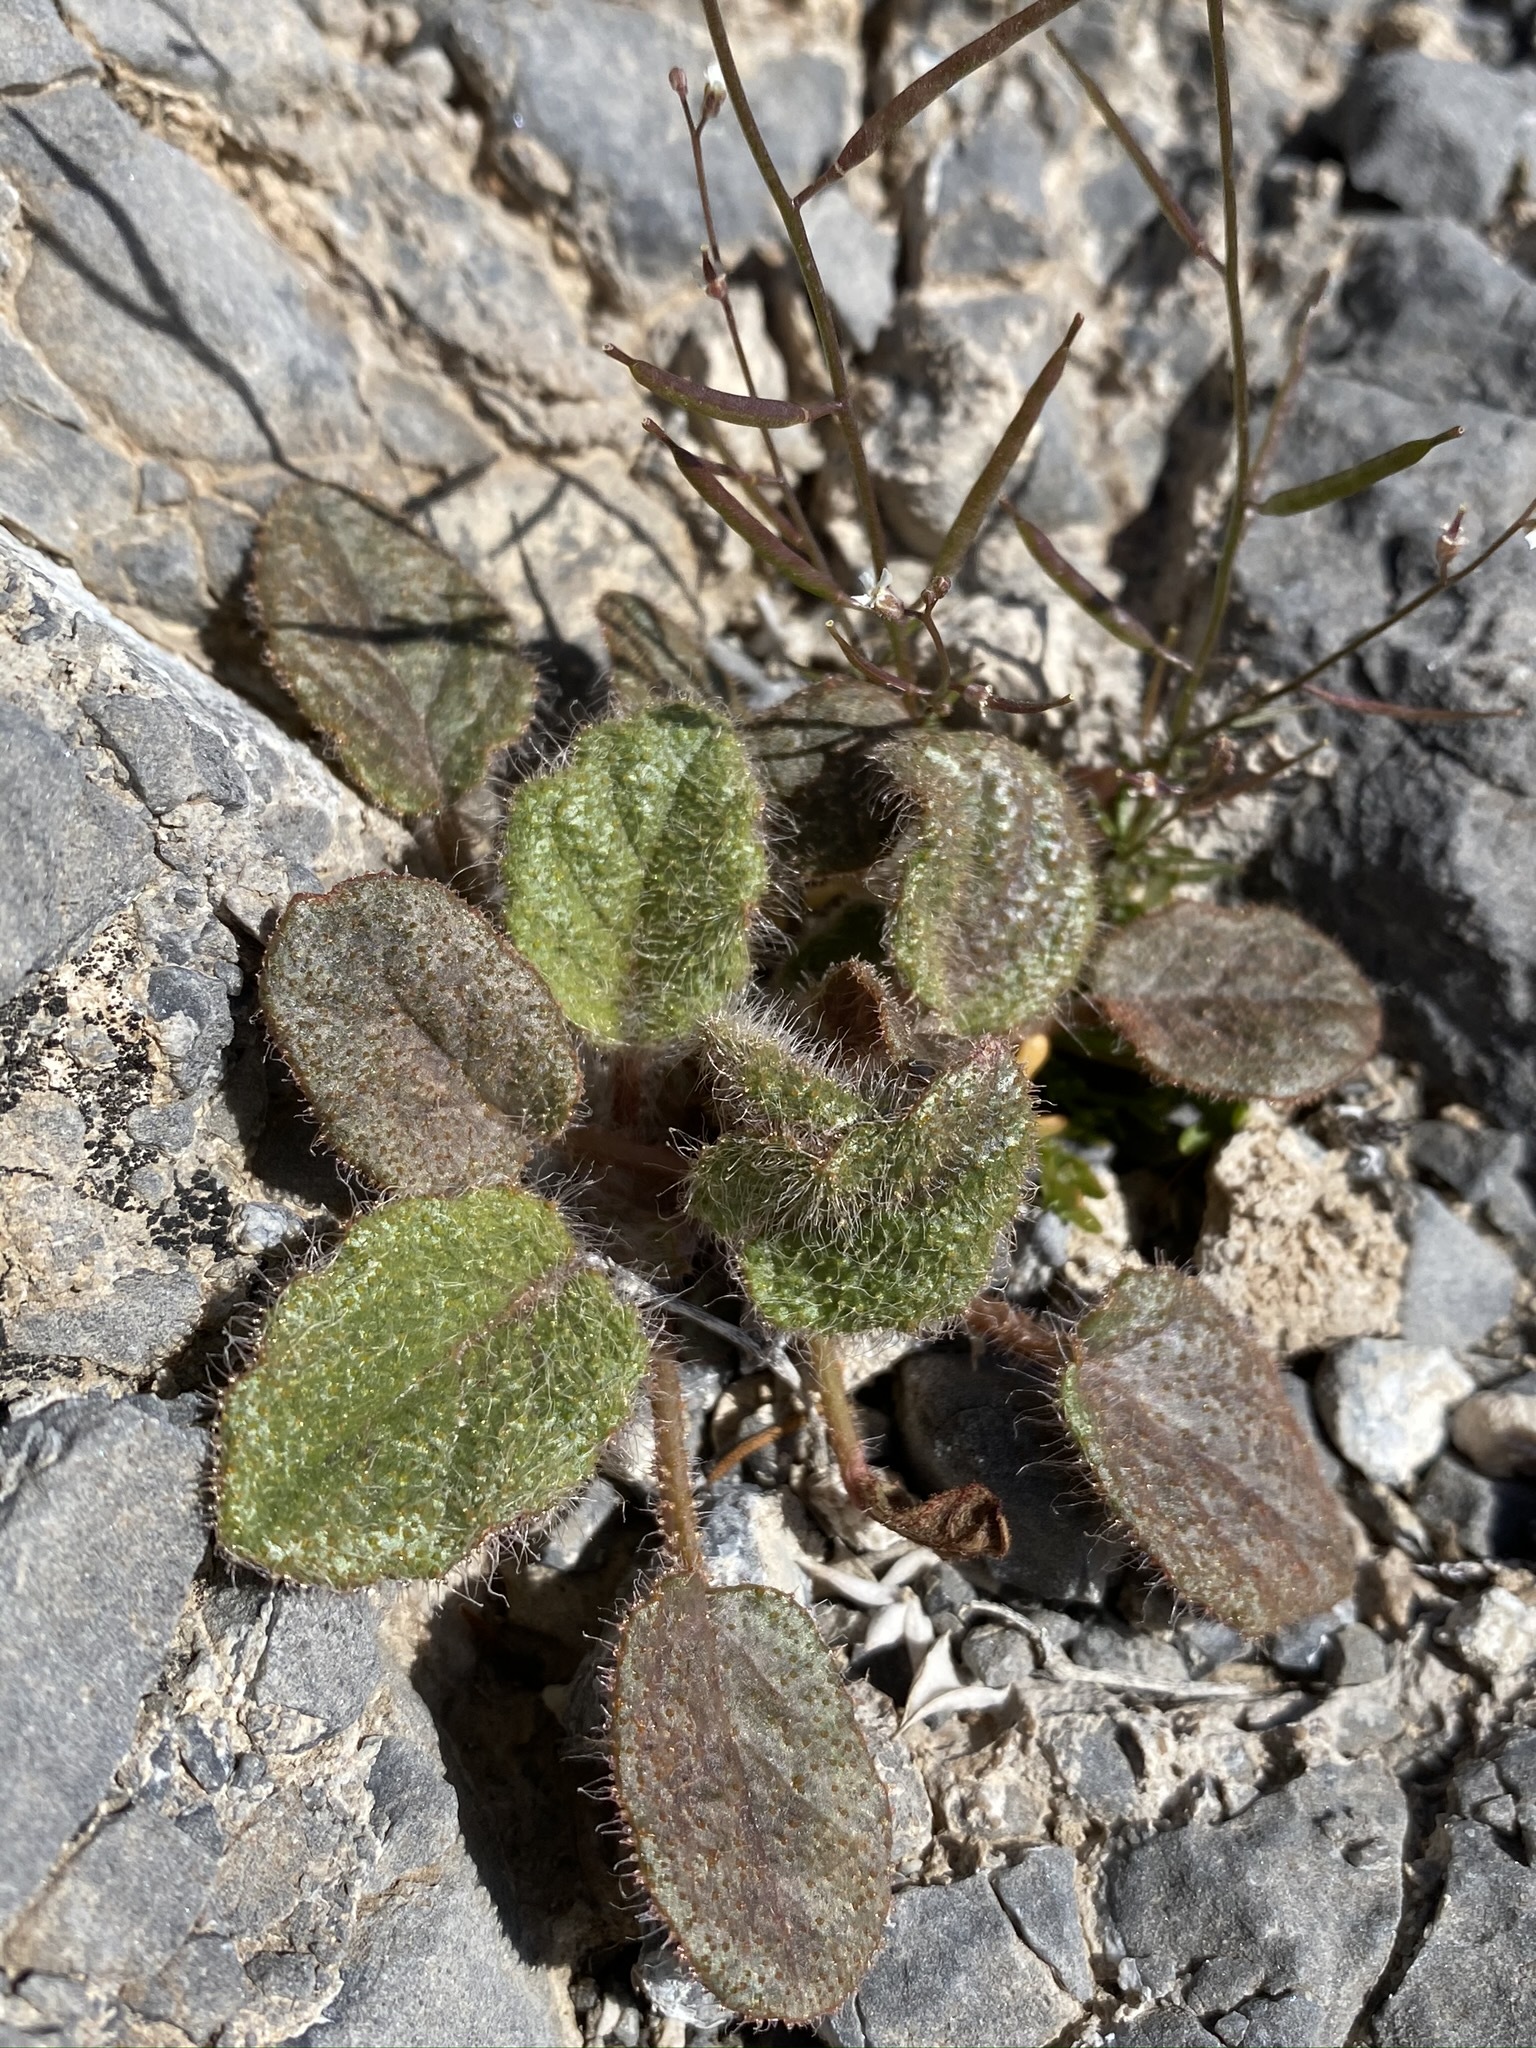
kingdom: Plantae
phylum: Tracheophyta
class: Magnoliopsida
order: Caryophyllales
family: Nyctaginaceae
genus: Anulocaulis
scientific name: Anulocaulis annulatus
